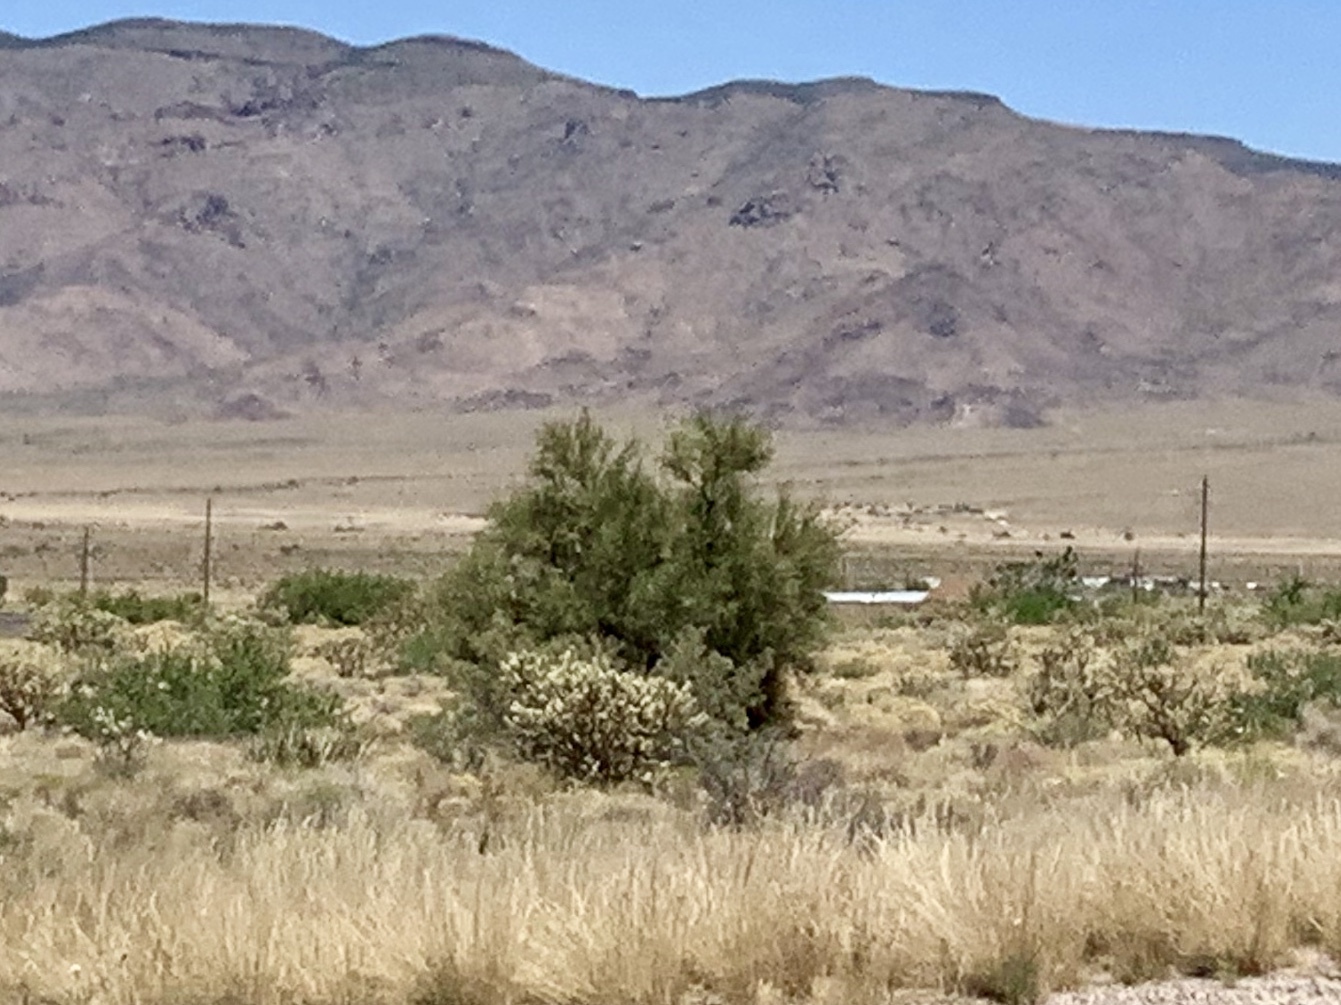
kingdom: Plantae
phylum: Tracheophyta
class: Magnoliopsida
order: Celastrales
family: Celastraceae
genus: Canotia
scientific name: Canotia holacantha
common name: Crucifixion thorns
